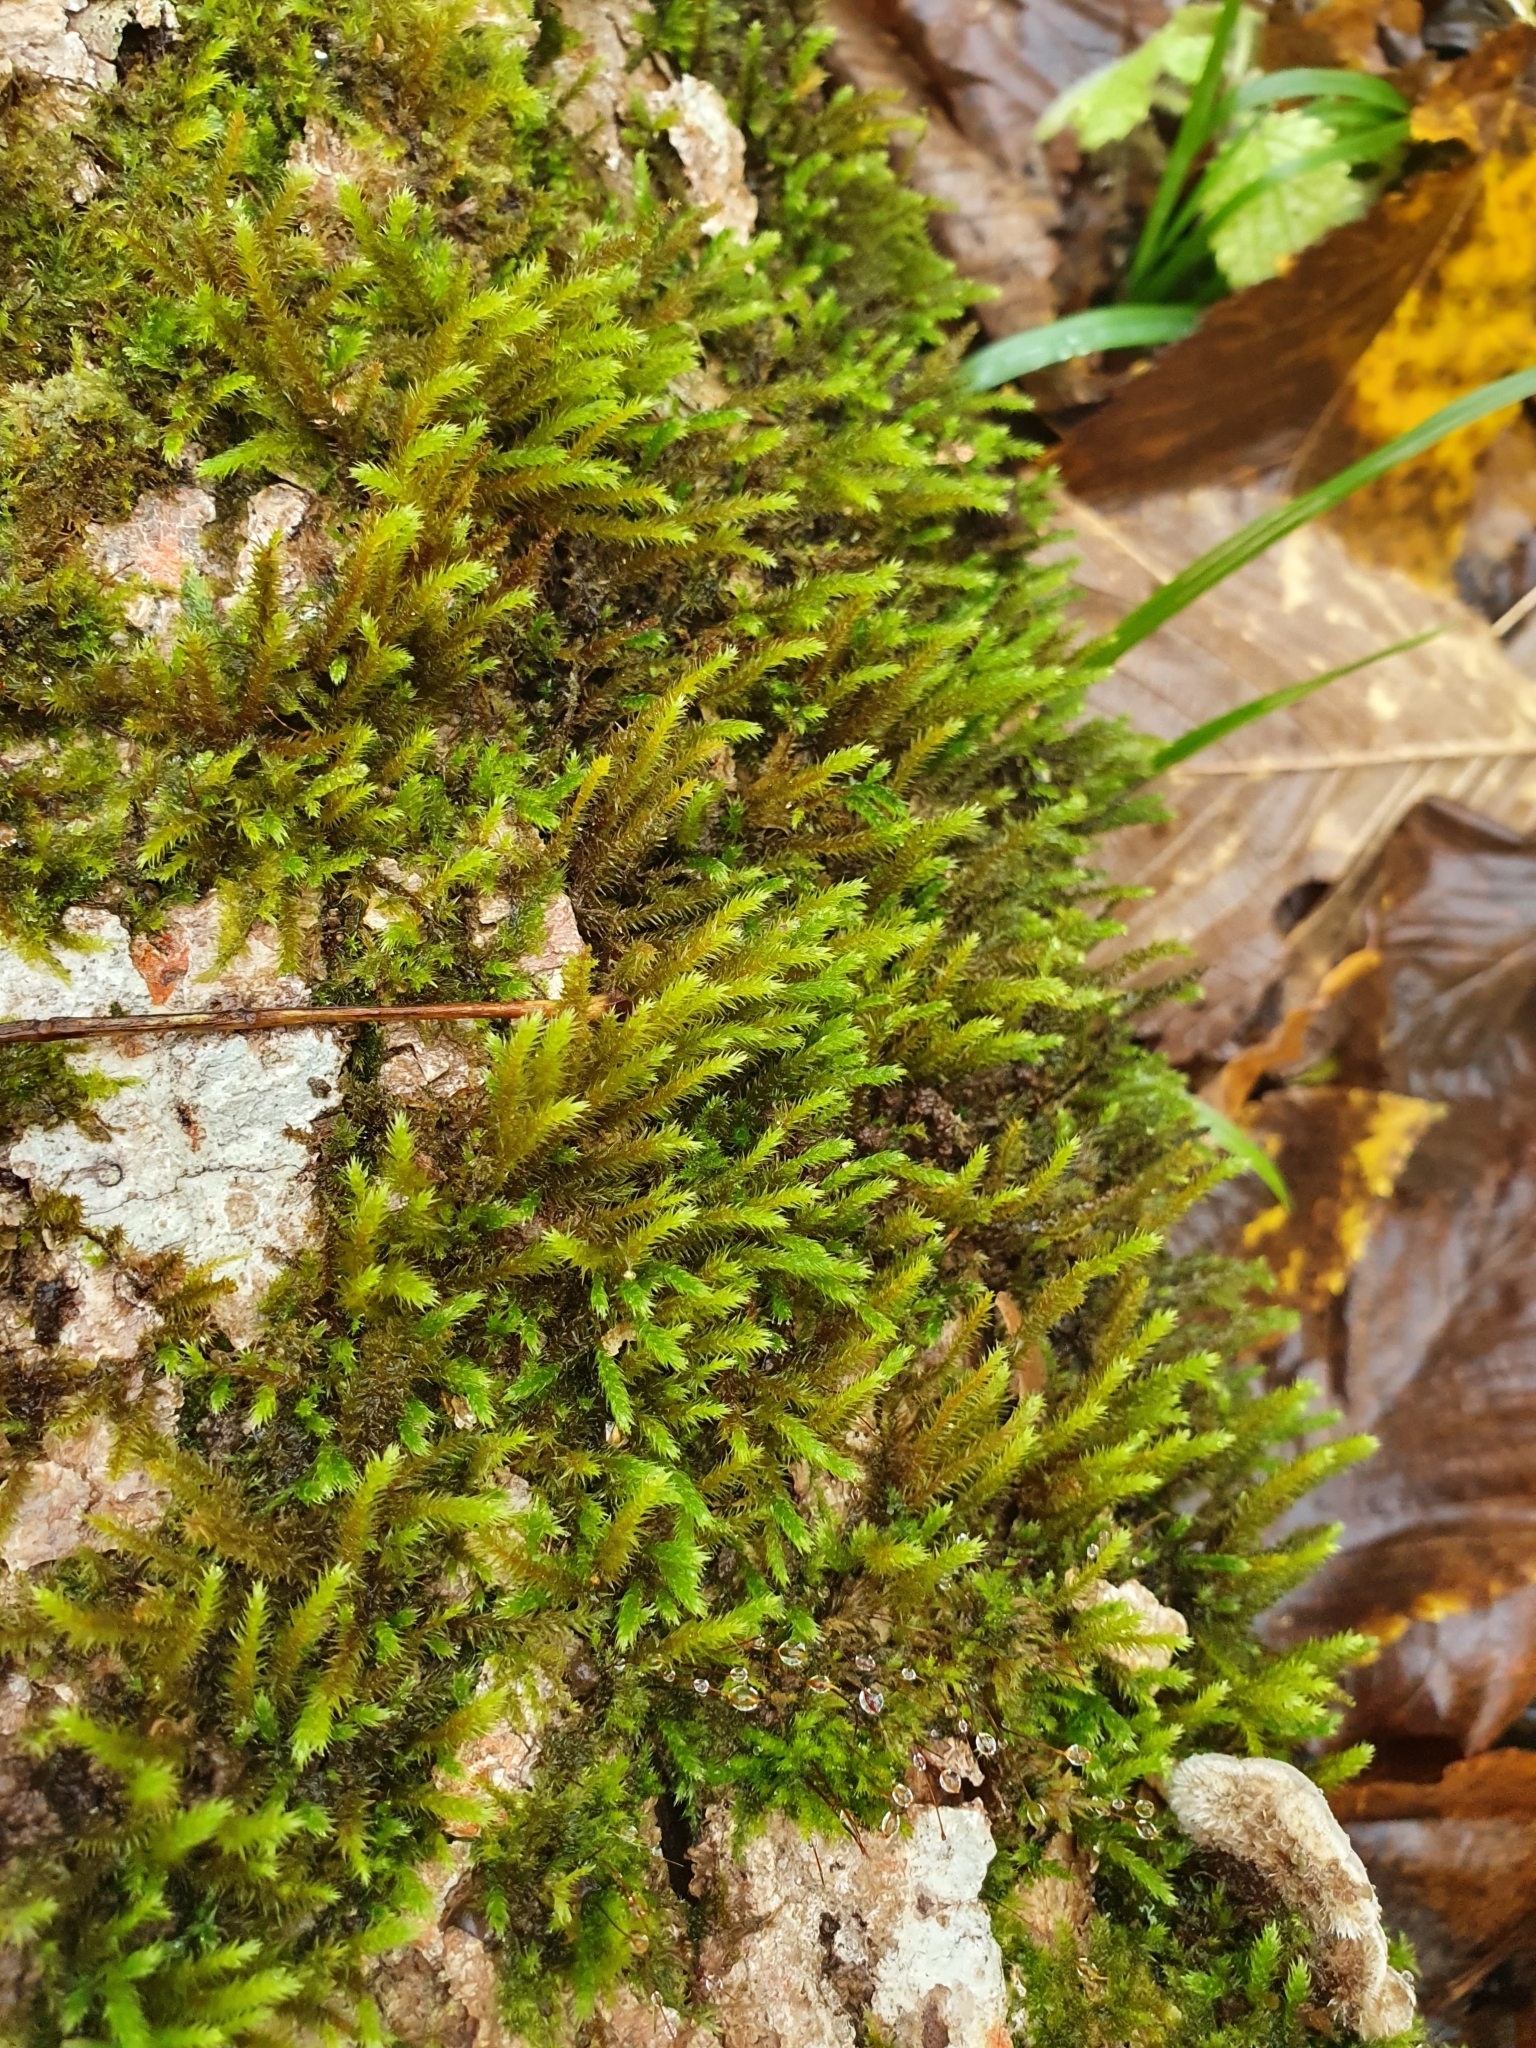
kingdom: Plantae
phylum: Bryophyta
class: Bryopsida
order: Hypnales
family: Leucodontaceae
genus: Leucodon
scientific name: Leucodon sciuroides
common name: Squirrel-tail moss
